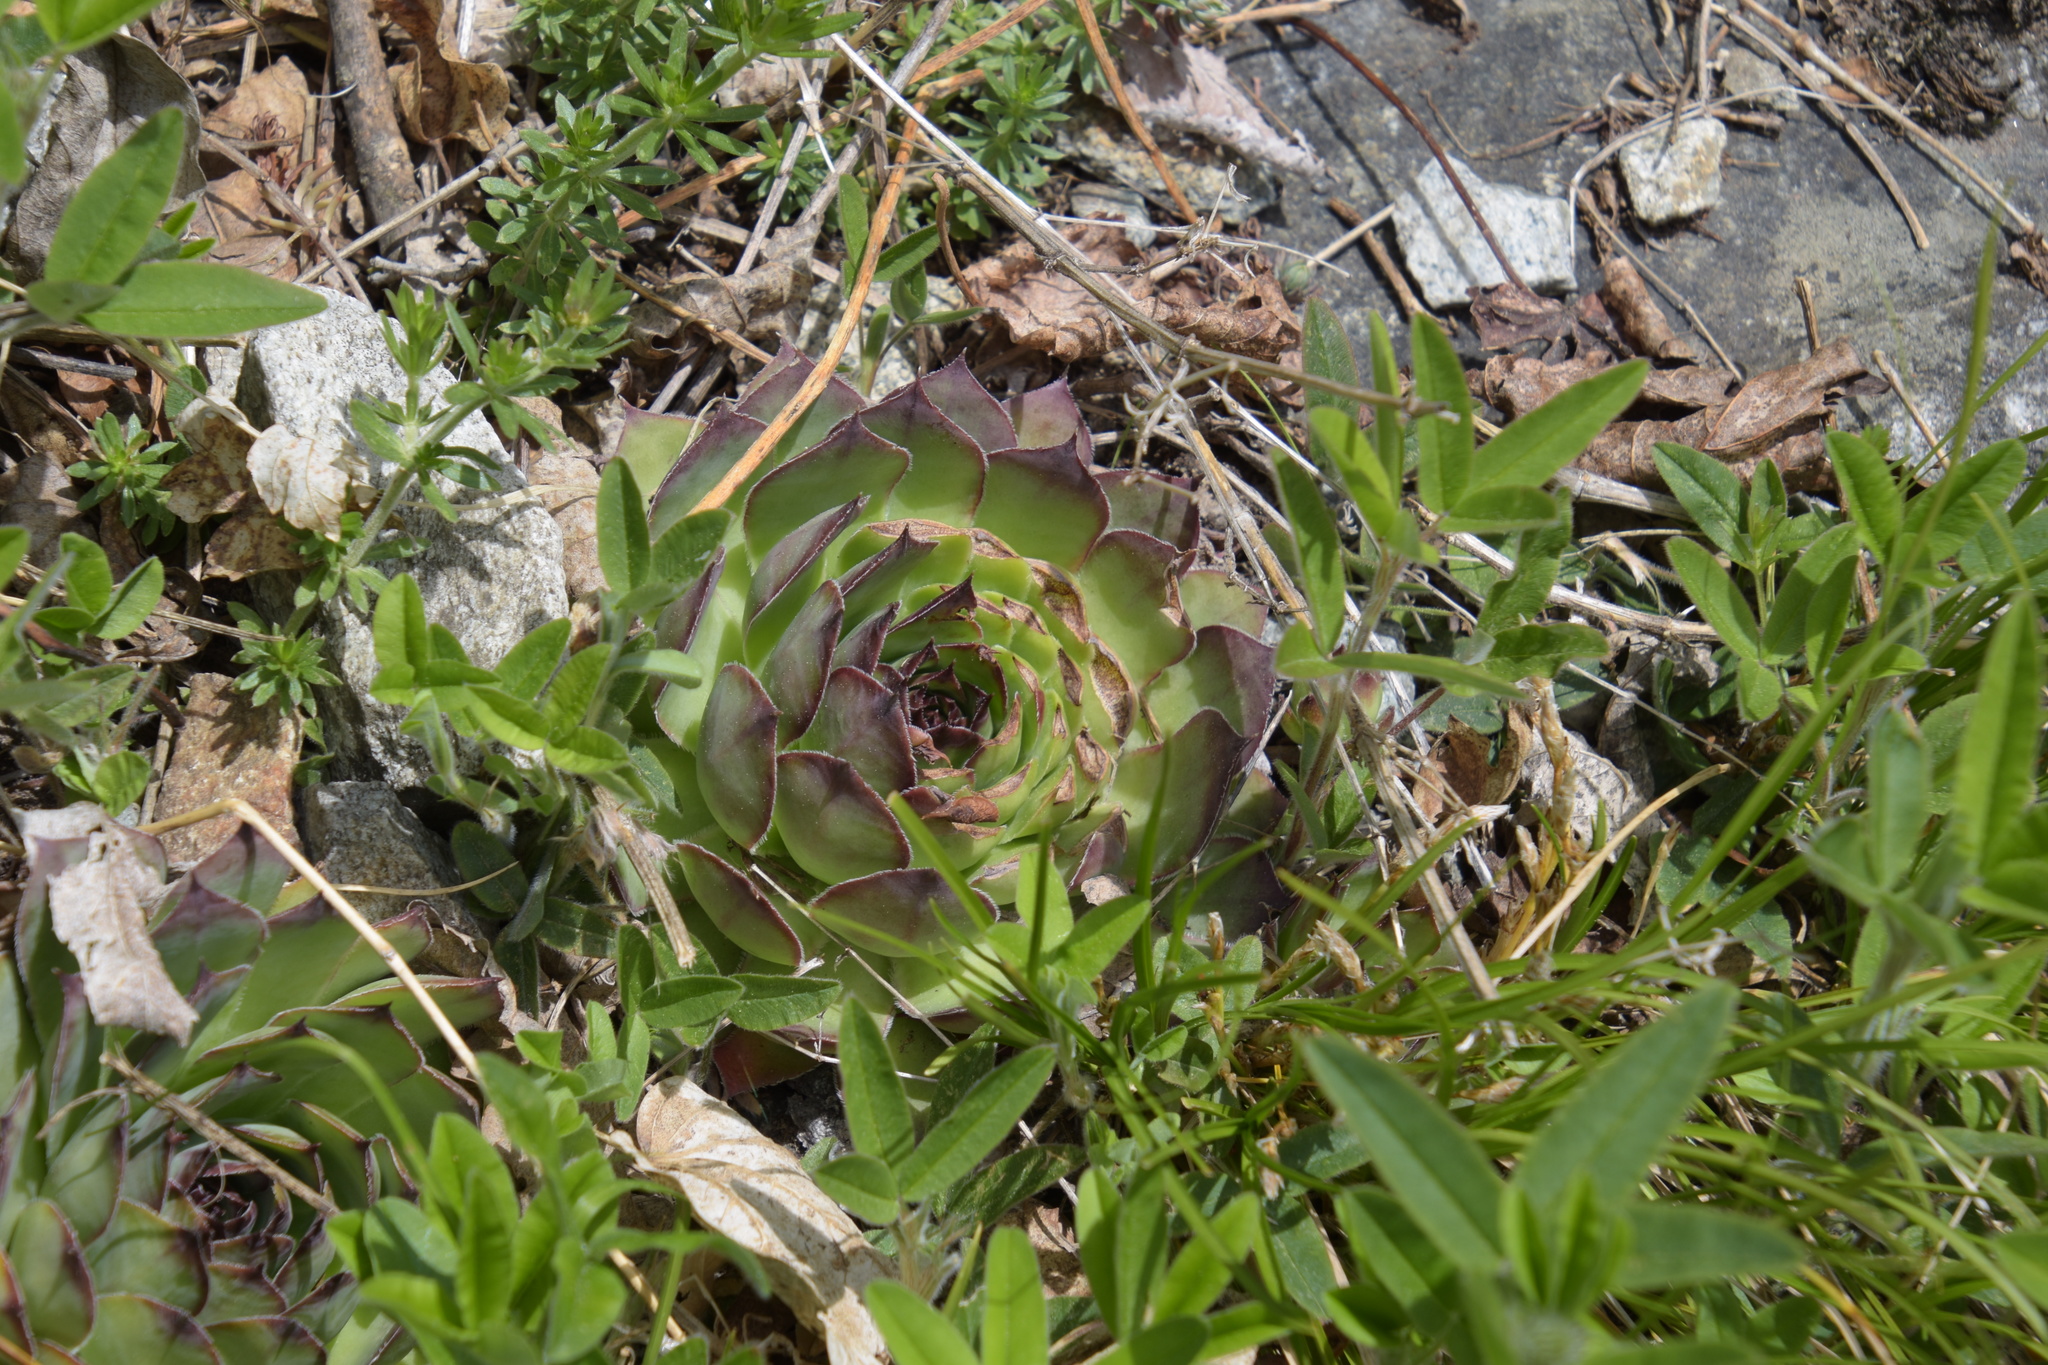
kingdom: Plantae
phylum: Tracheophyta
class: Magnoliopsida
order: Saxifragales
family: Crassulaceae
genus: Sempervivum
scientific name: Sempervivum tectorum
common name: House-leek
